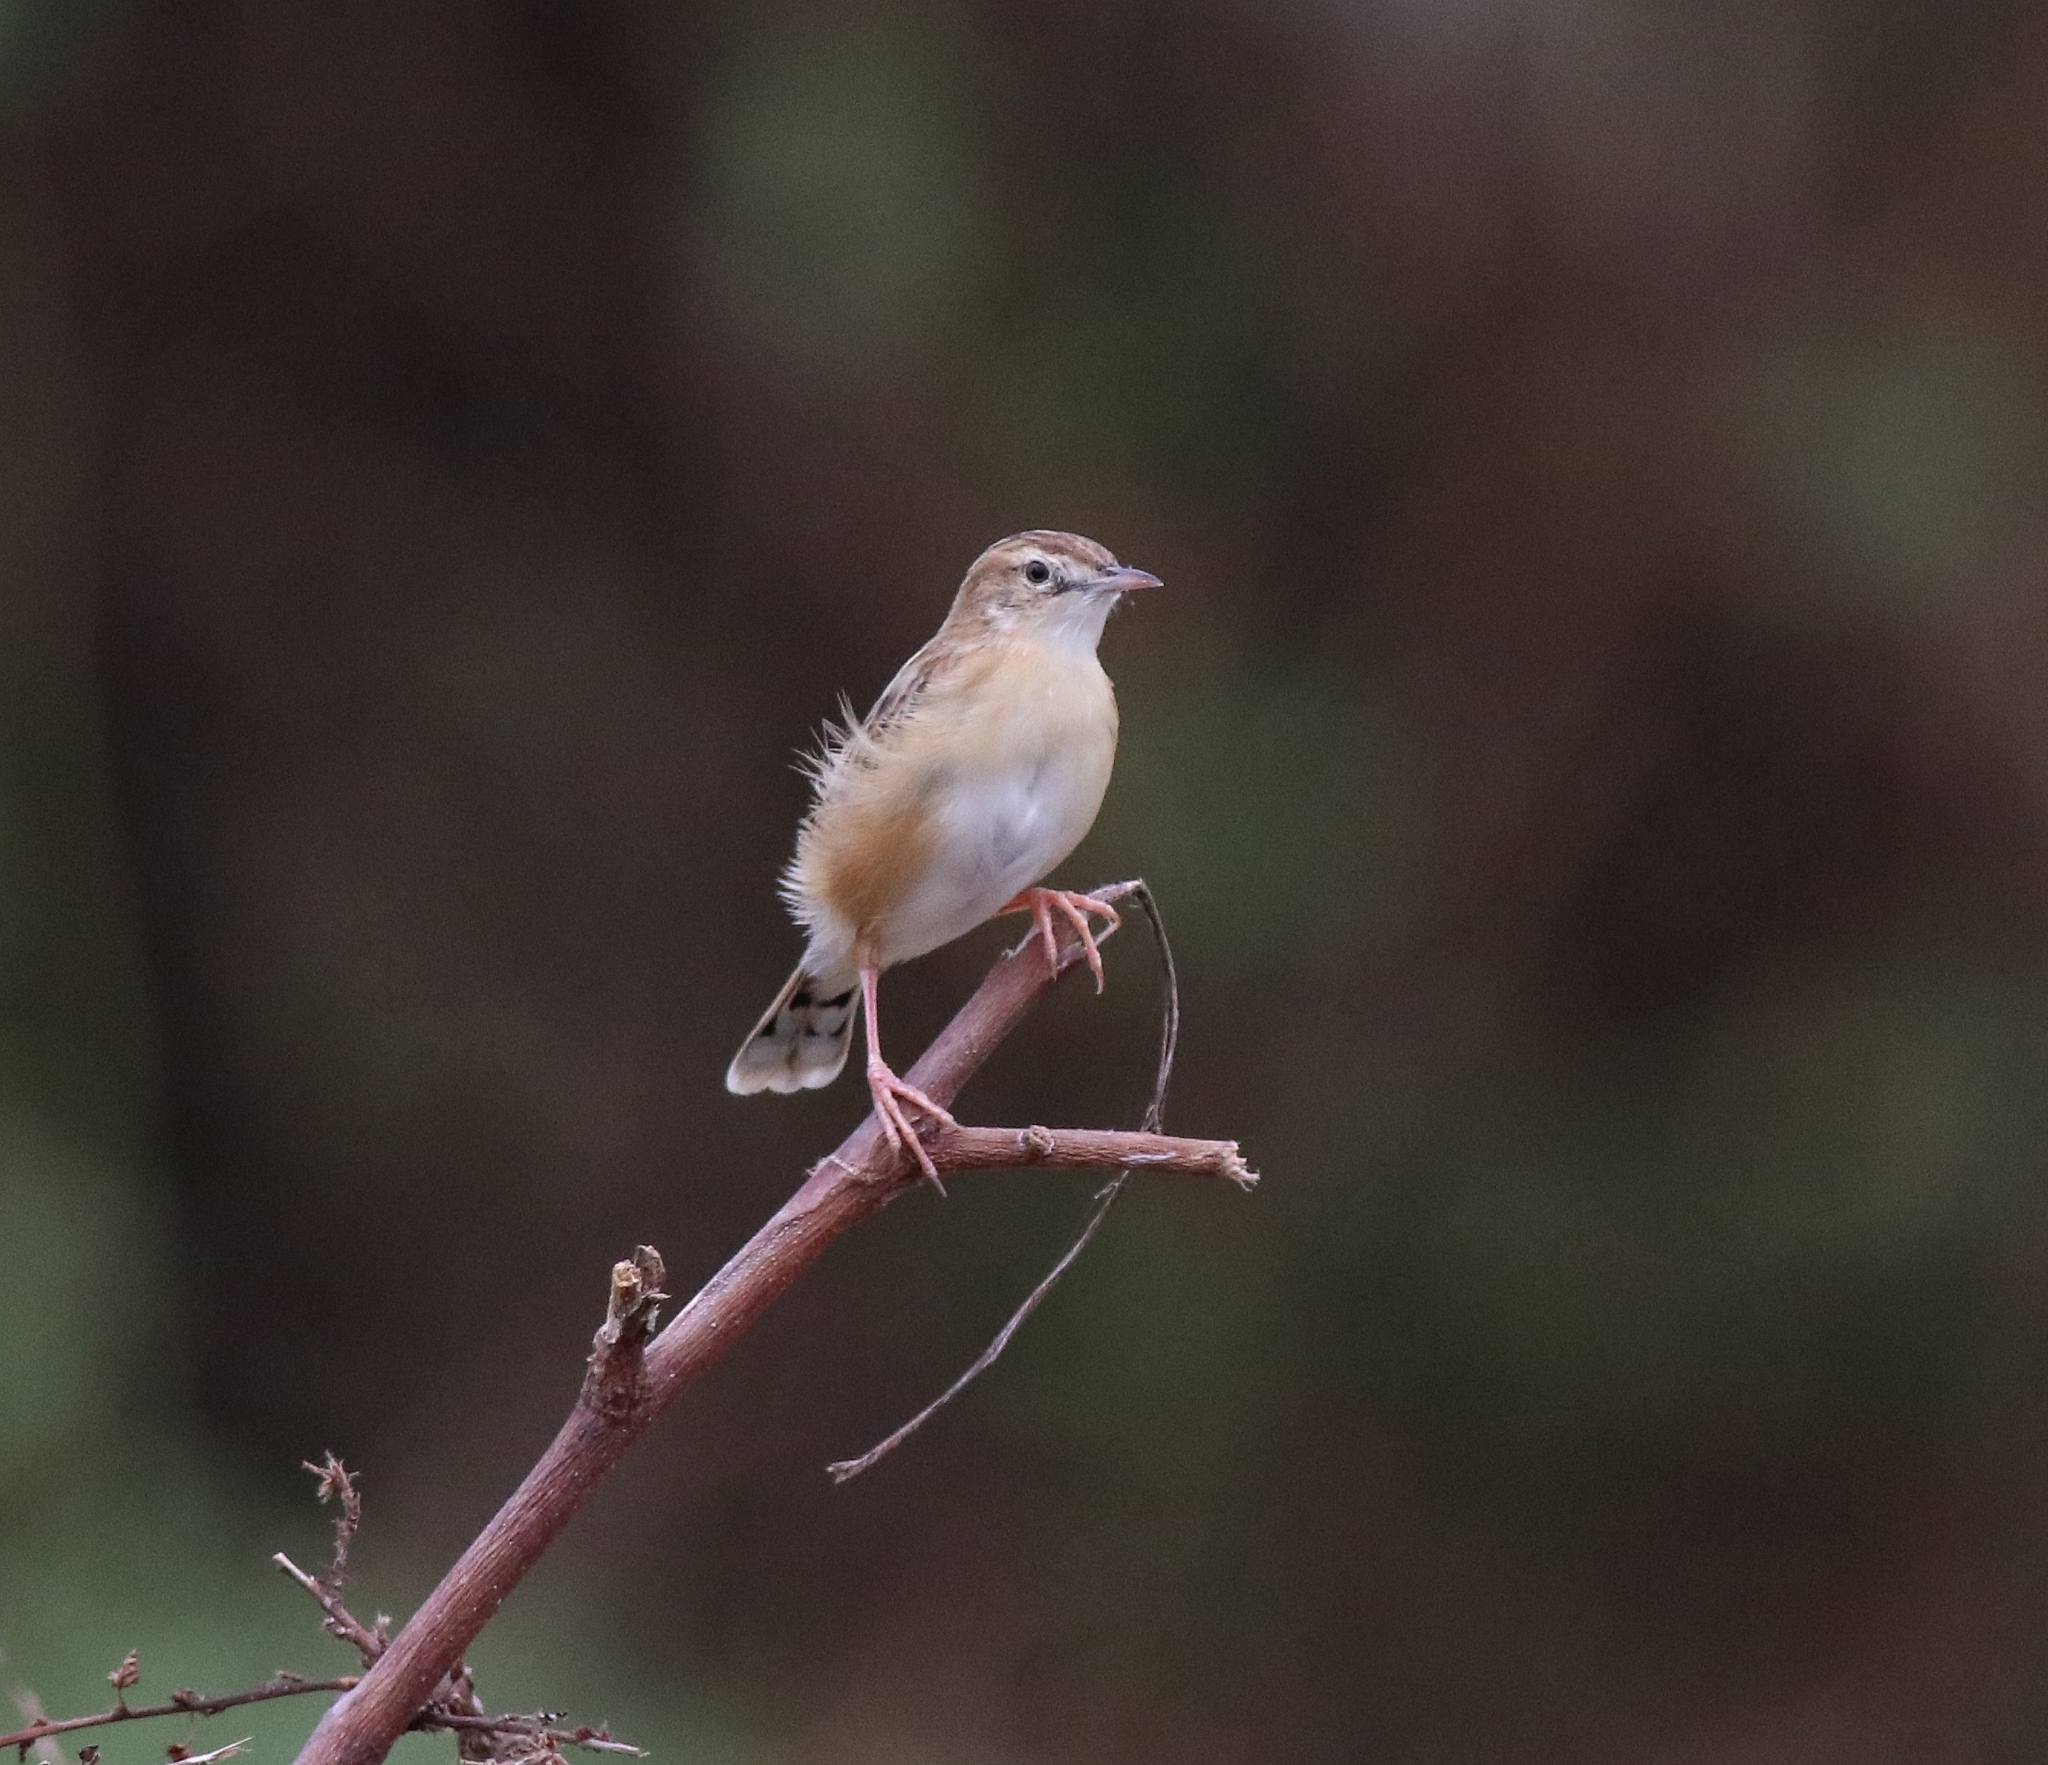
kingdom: Animalia
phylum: Chordata
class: Aves
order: Passeriformes
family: Cisticolidae
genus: Cisticola
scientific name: Cisticola juncidis
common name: Zitting cisticola
